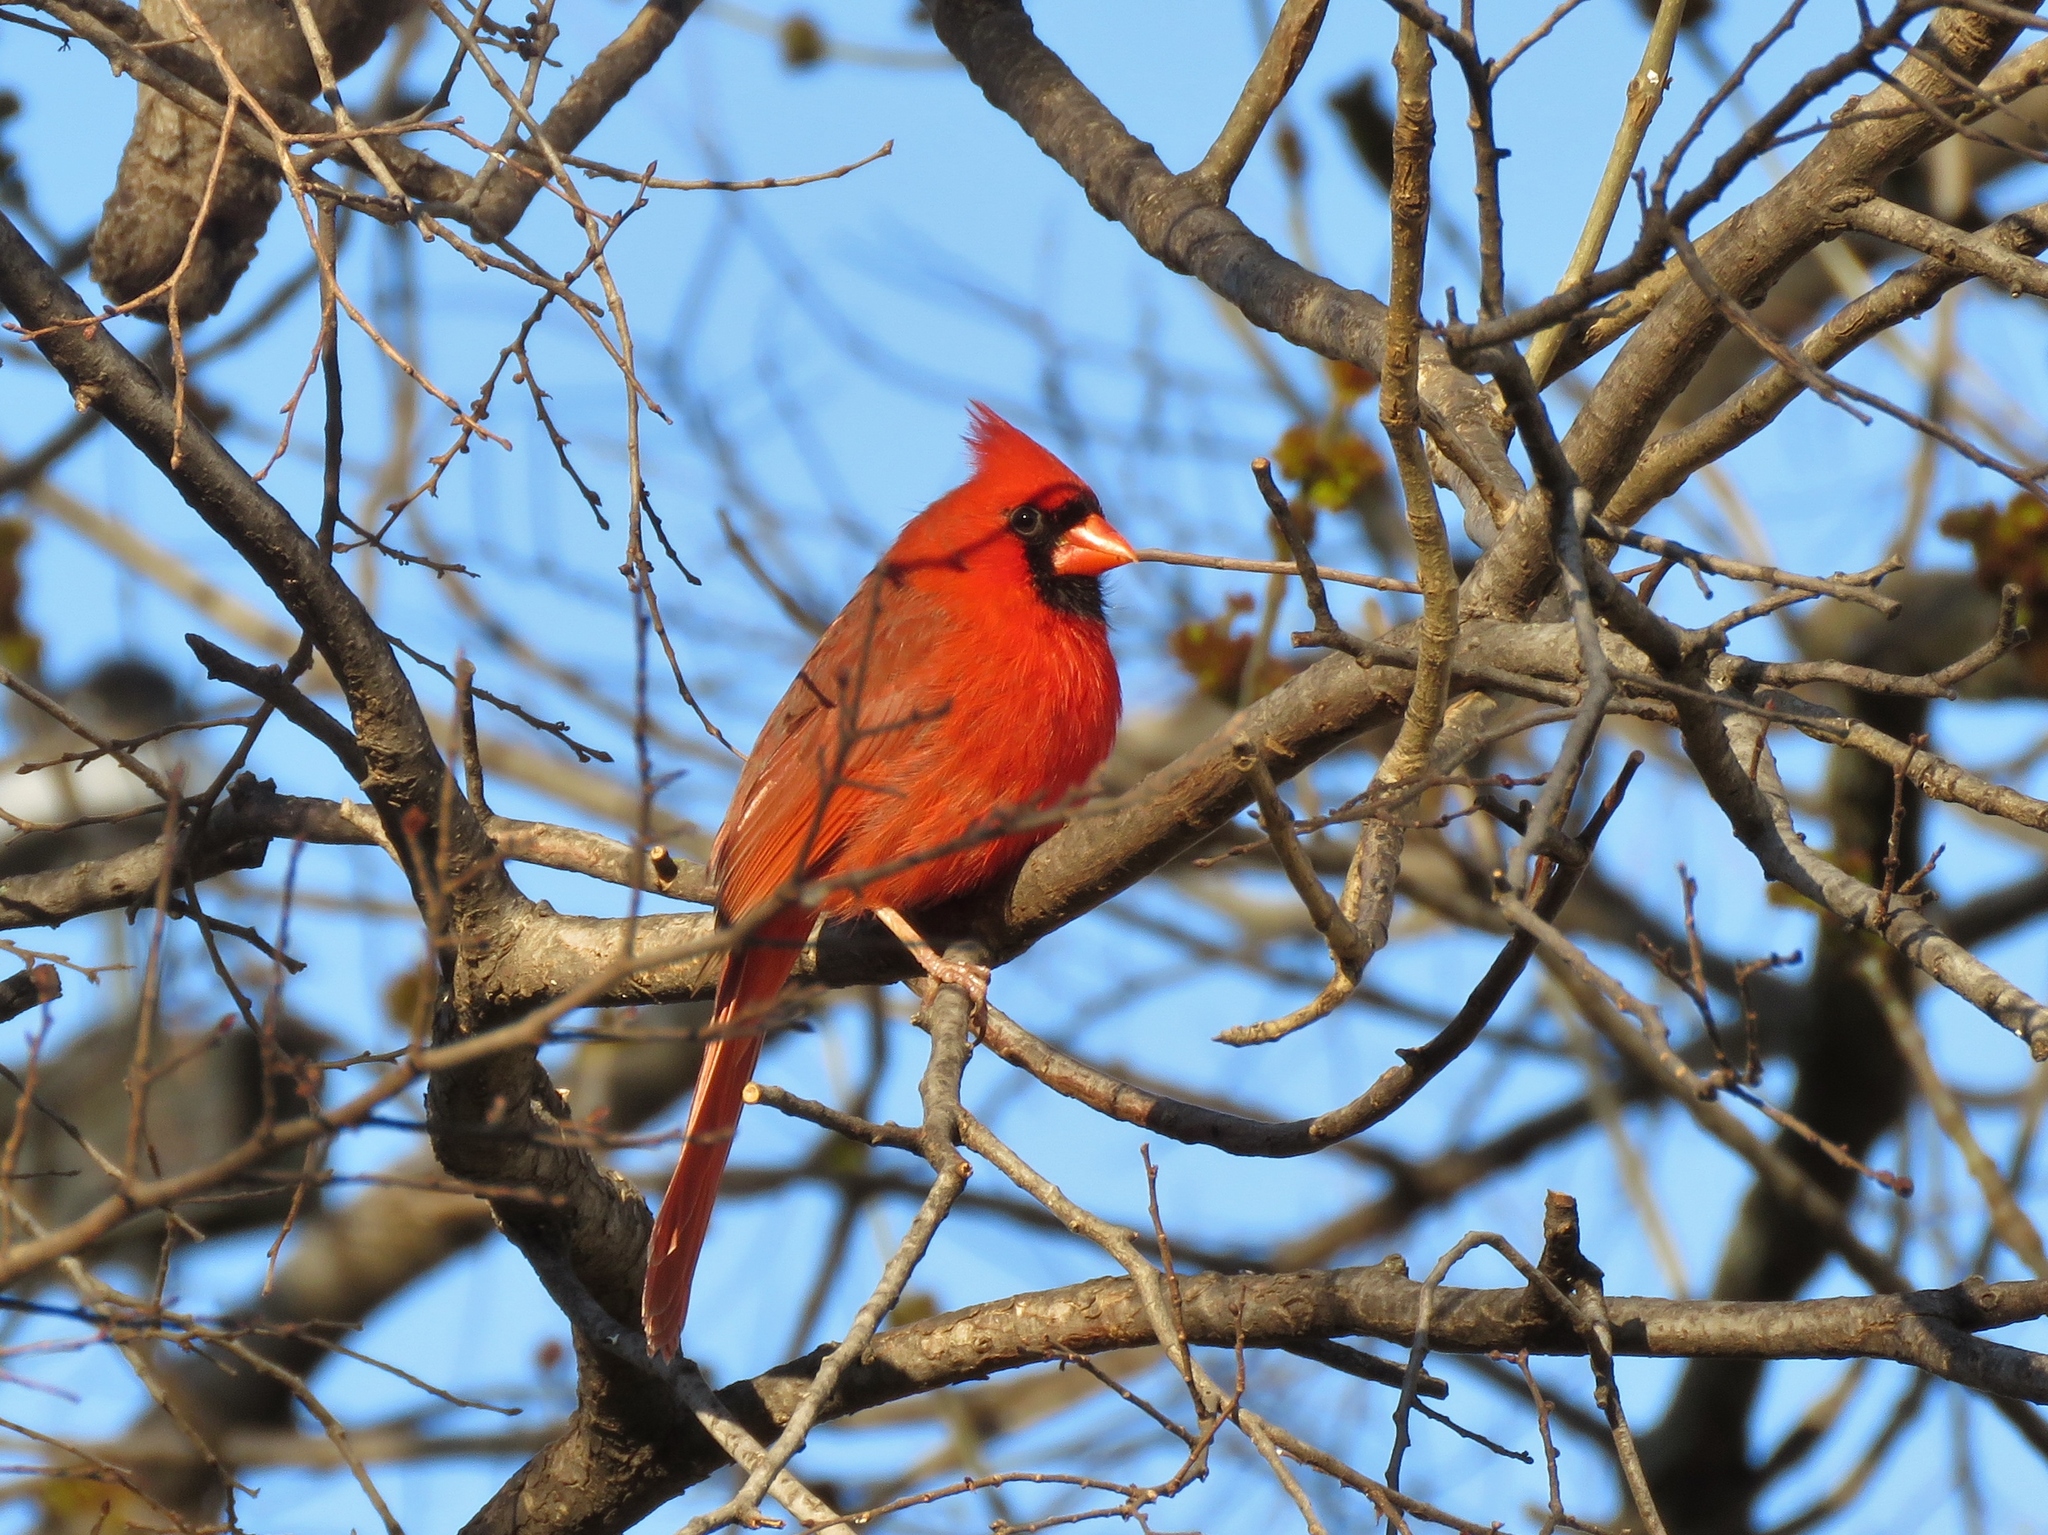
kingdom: Animalia
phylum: Chordata
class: Aves
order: Passeriformes
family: Cardinalidae
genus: Cardinalis
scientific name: Cardinalis cardinalis
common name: Northern cardinal
